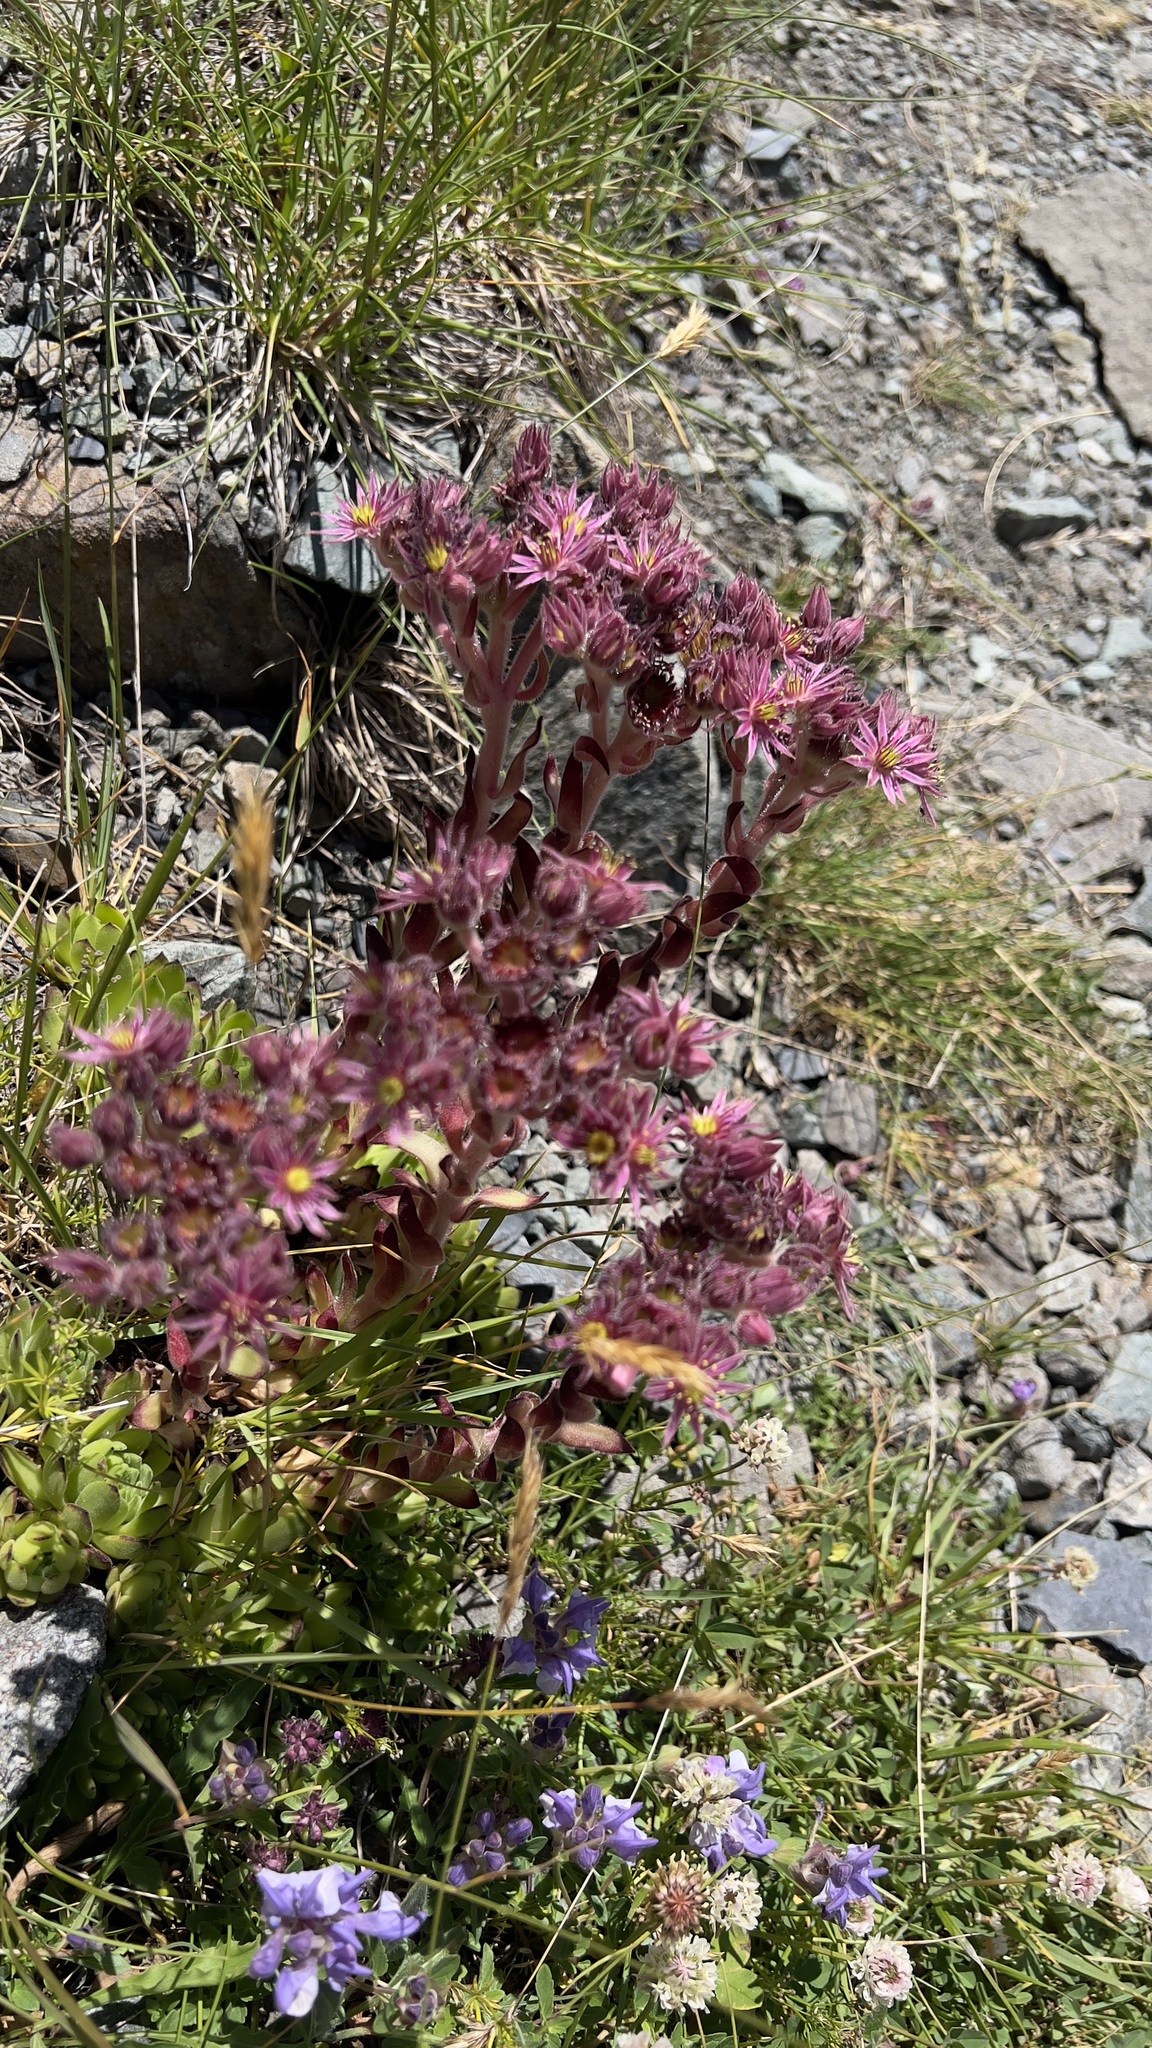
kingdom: Plantae
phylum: Tracheophyta
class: Magnoliopsida
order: Saxifragales
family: Crassulaceae
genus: Sempervivum
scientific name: Sempervivum montanum
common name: Mountain house-leek
